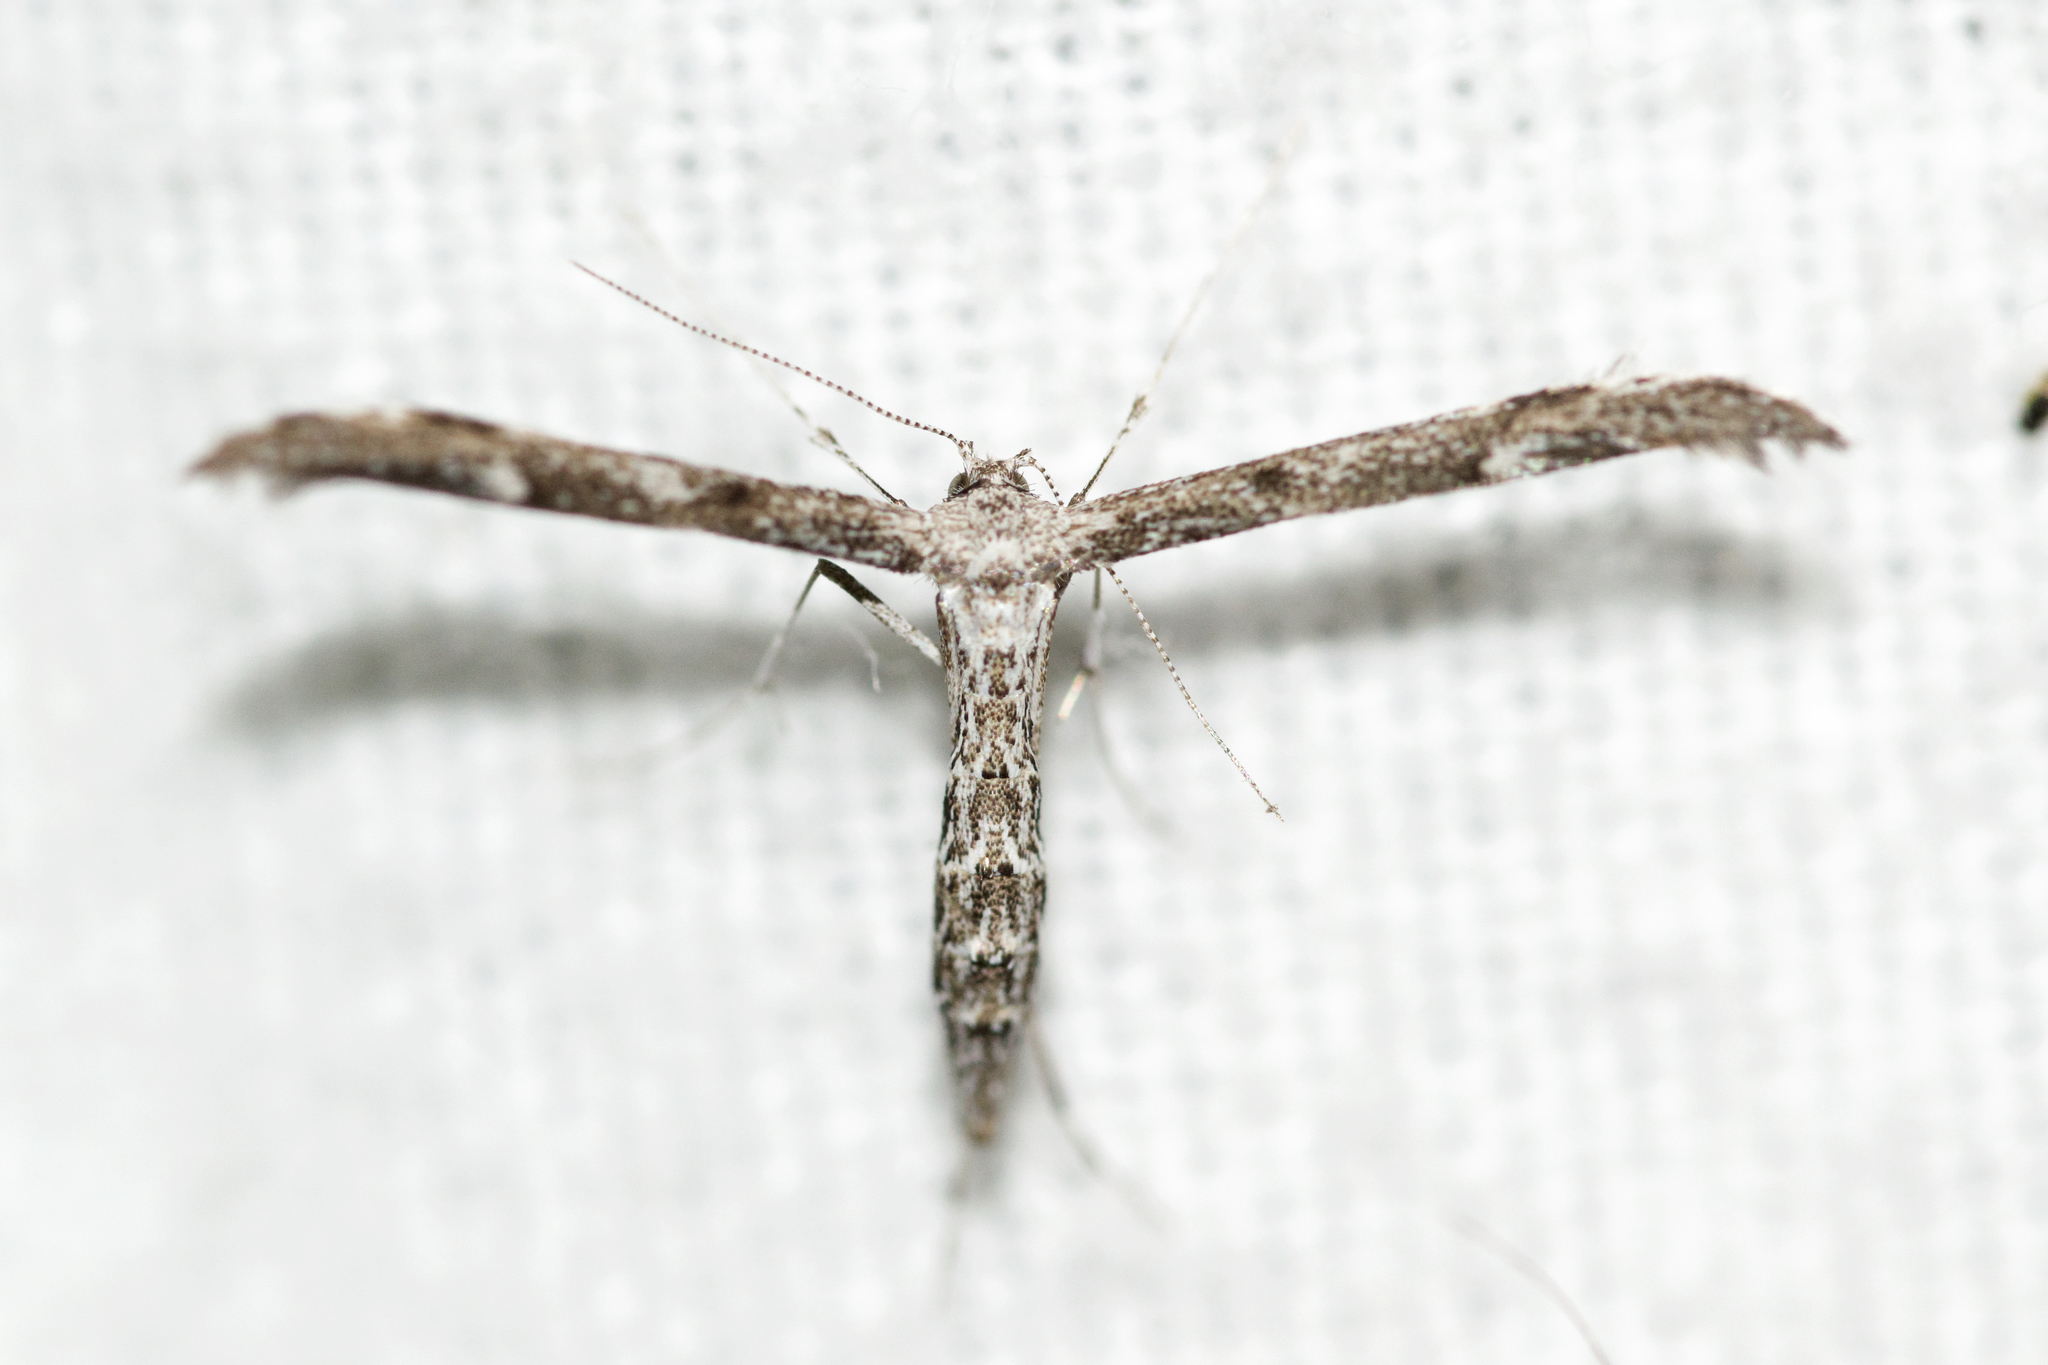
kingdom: Animalia
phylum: Arthropoda
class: Insecta
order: Lepidoptera
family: Pterophoridae
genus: Hellinsia
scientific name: Hellinsia inquinatus
